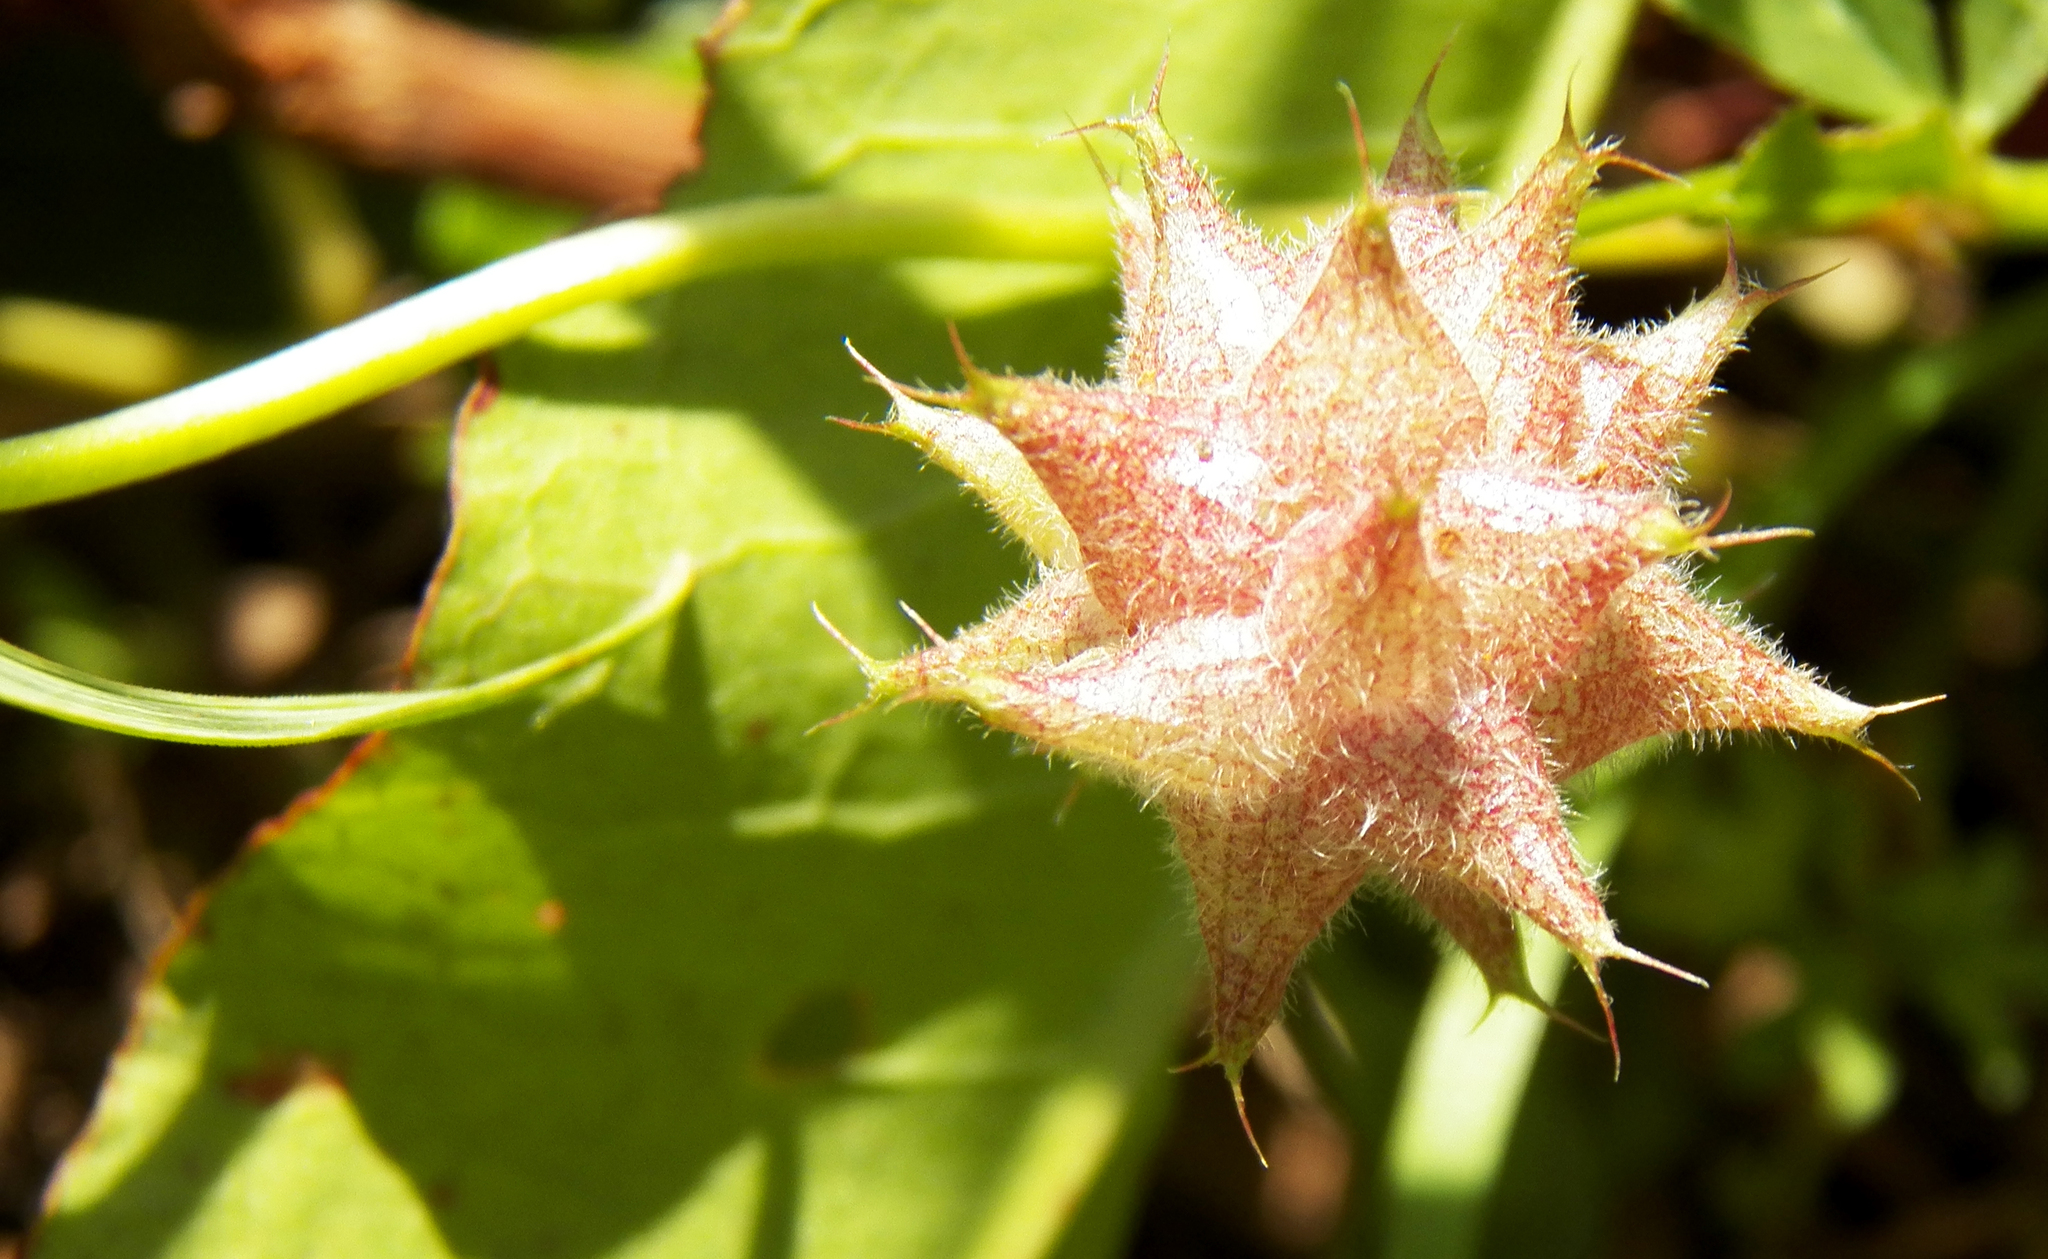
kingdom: Plantae
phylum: Tracheophyta
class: Magnoliopsida
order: Fabales
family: Fabaceae
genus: Trifolium
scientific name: Trifolium resupinatum
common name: Reversed clover
